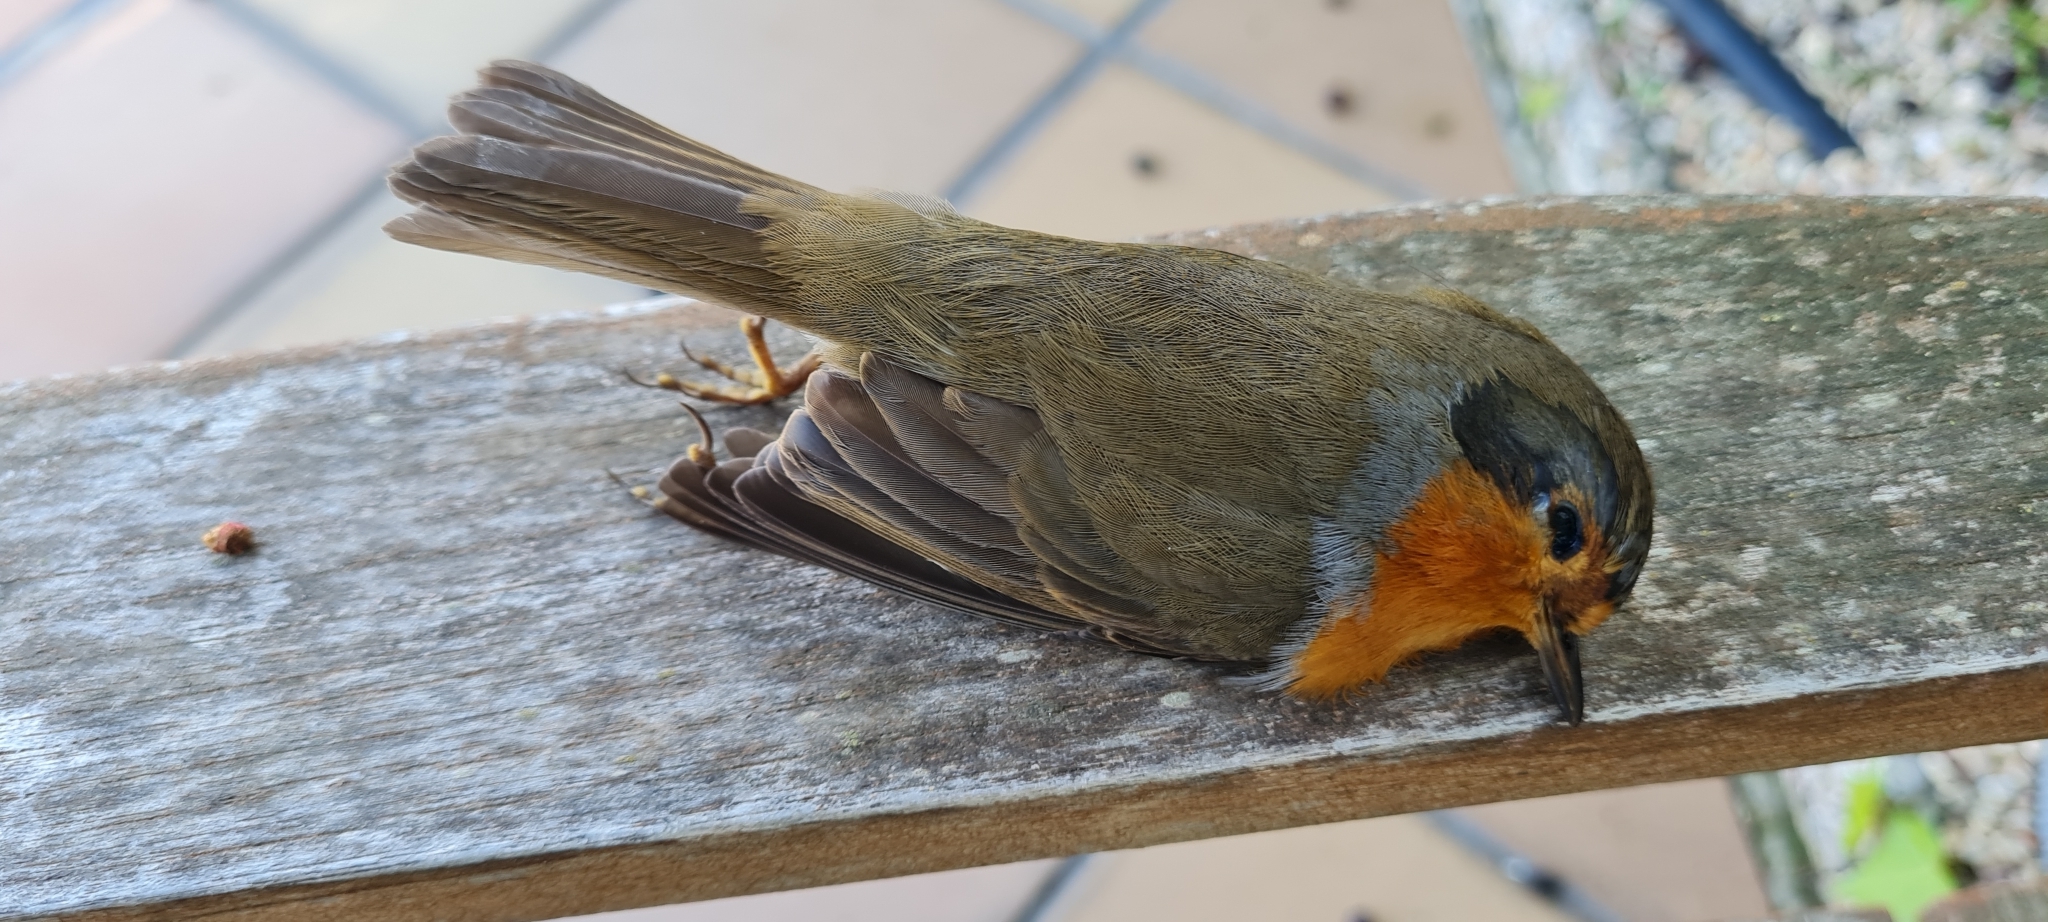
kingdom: Animalia
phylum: Chordata
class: Aves
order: Passeriformes
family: Muscicapidae
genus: Erithacus
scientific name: Erithacus rubecula
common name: European robin
